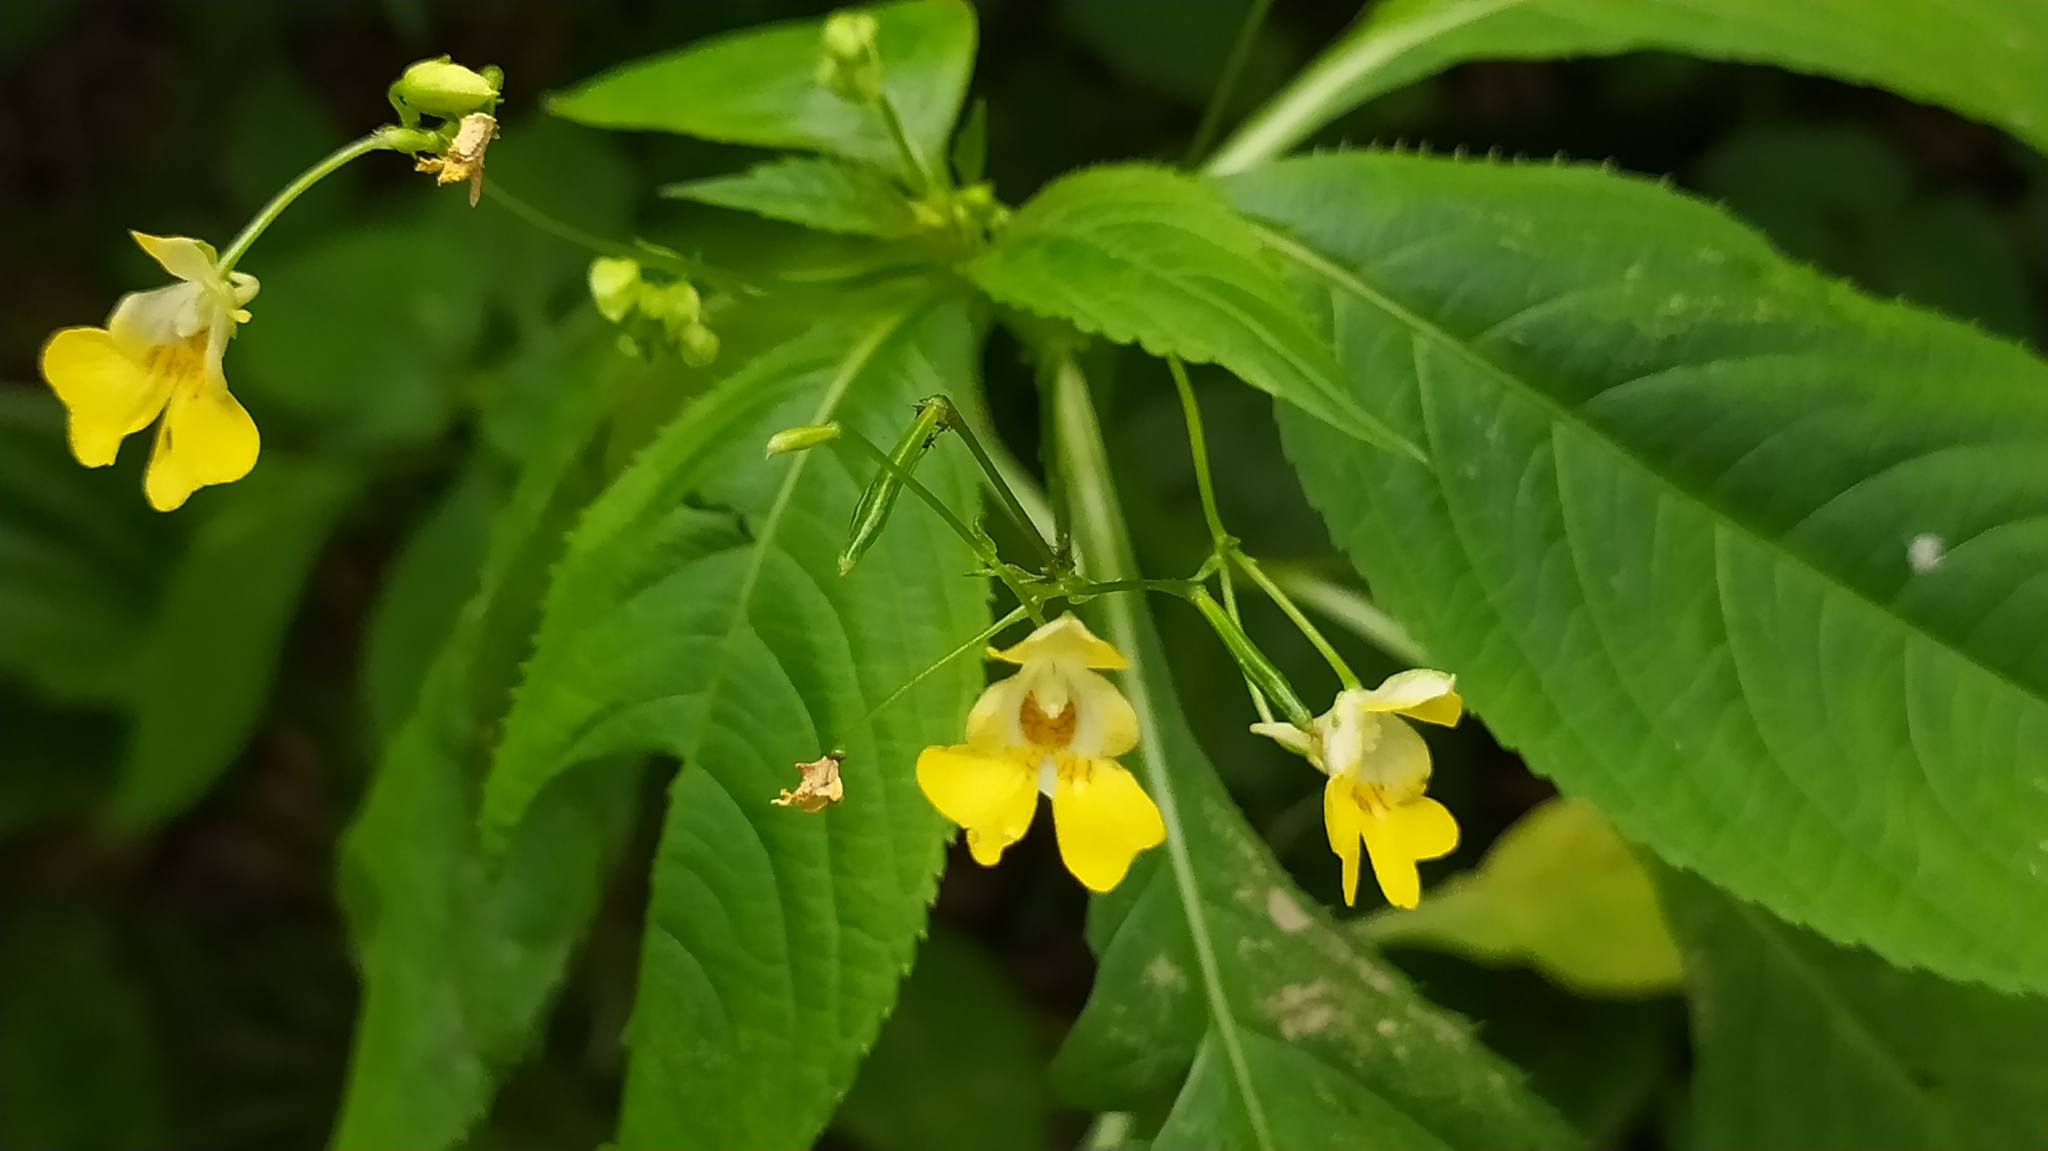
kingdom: Plantae
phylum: Tracheophyta
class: Magnoliopsida
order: Ericales
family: Balsaminaceae
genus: Impatiens
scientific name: Impatiens parviflora
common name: Small balsam
